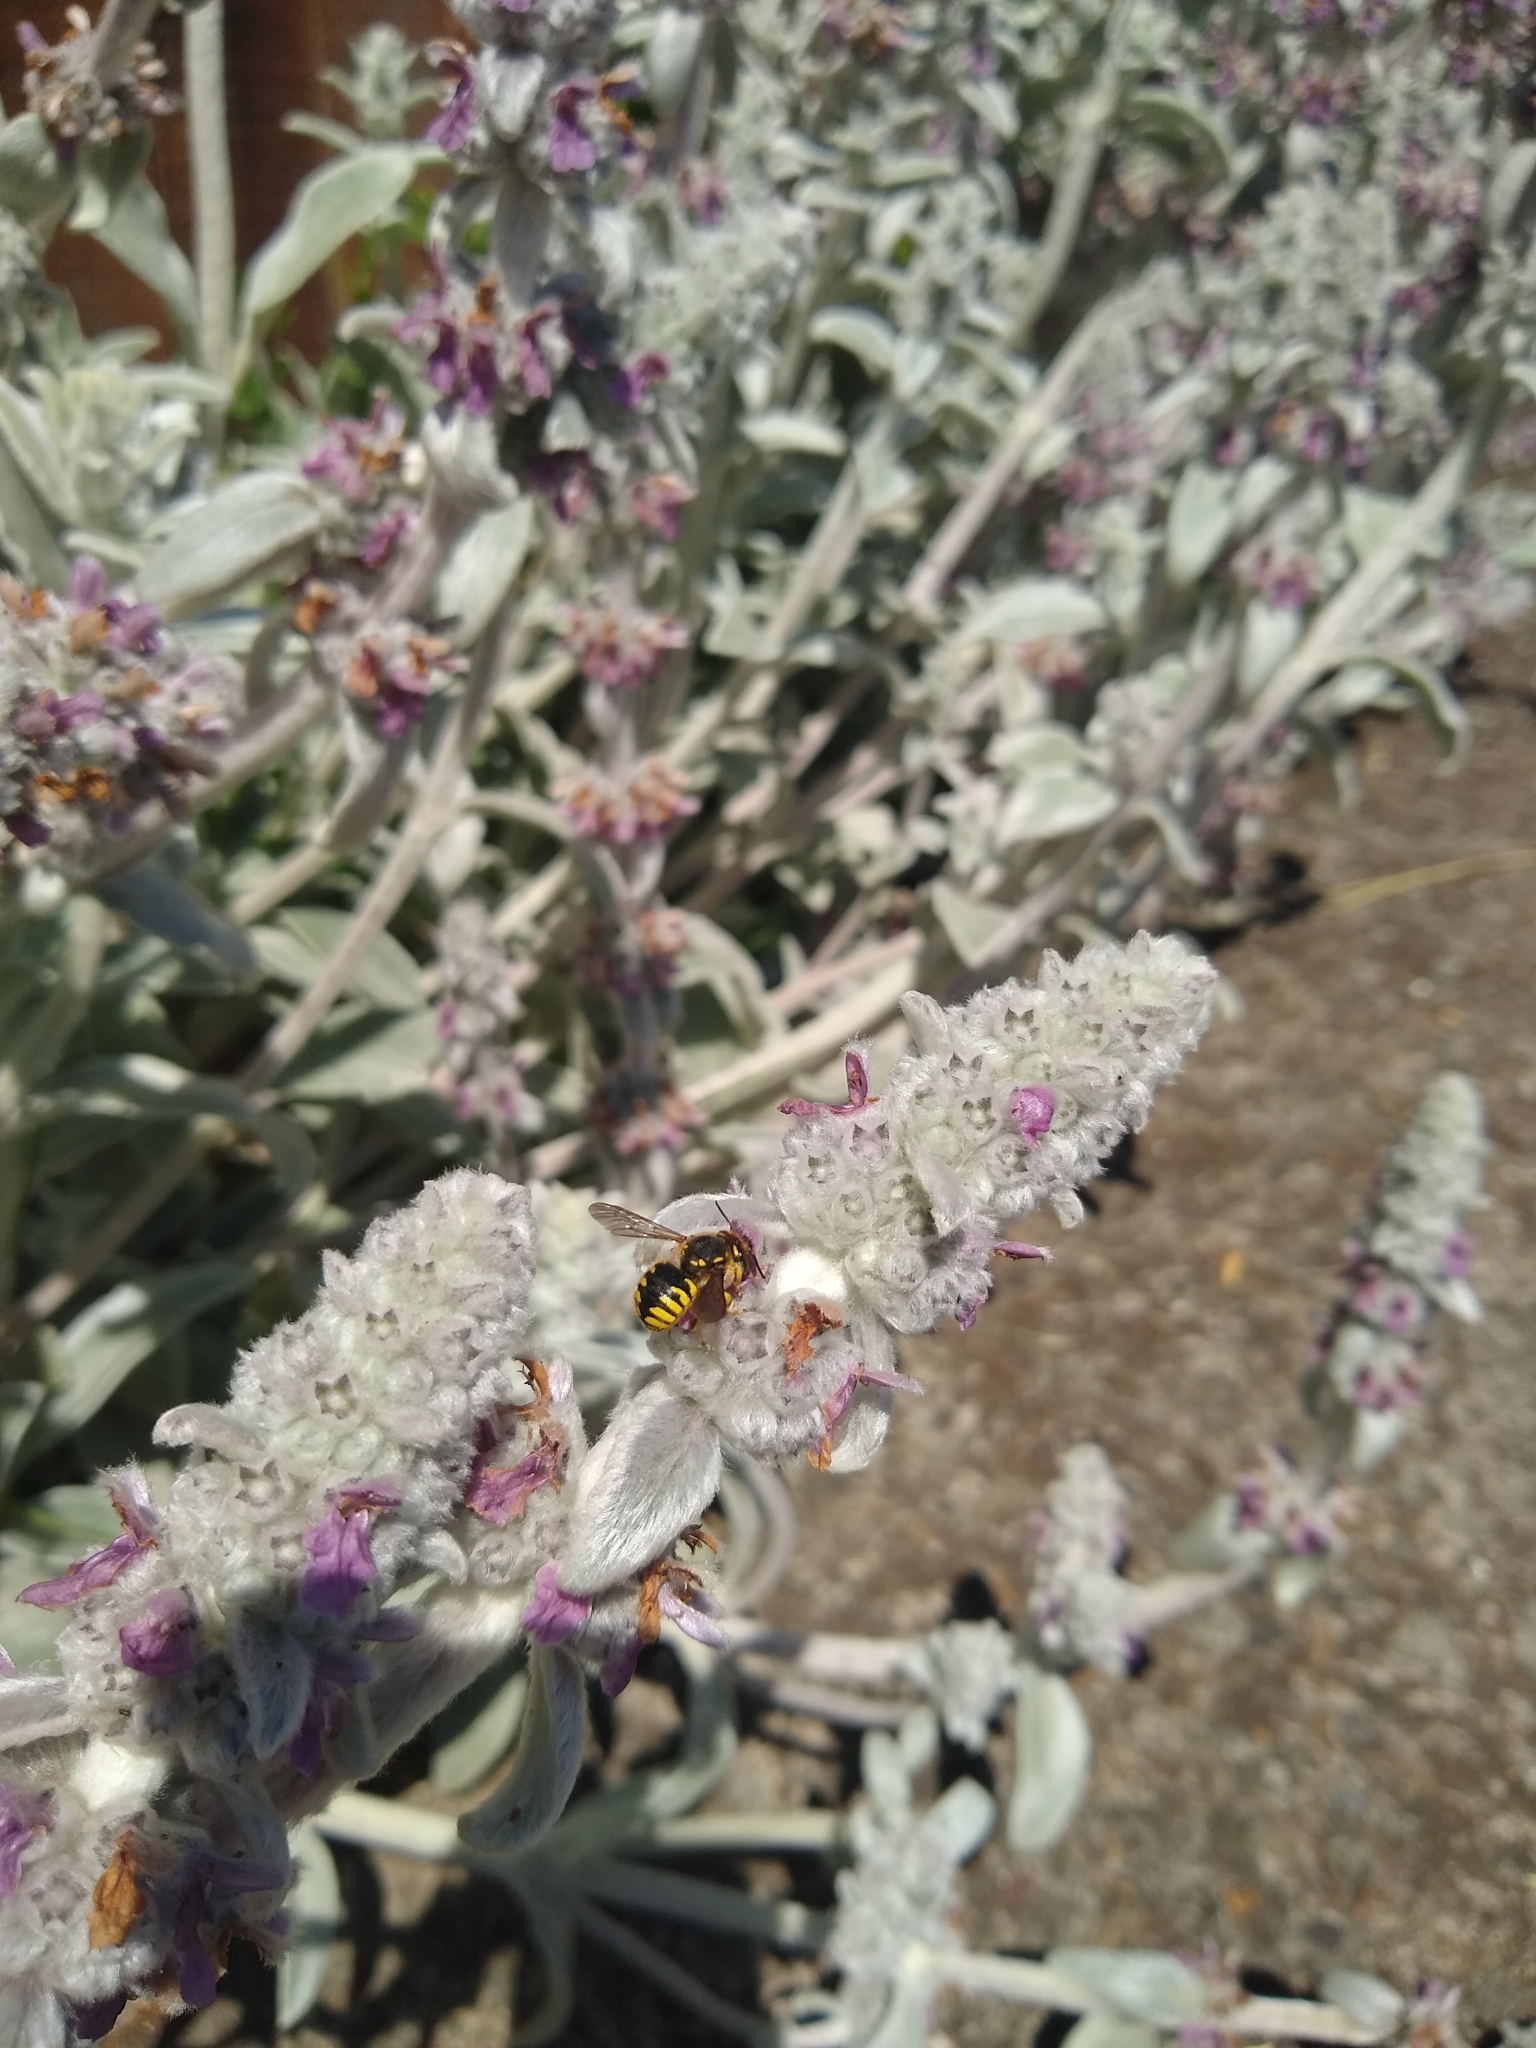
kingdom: Animalia
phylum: Arthropoda
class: Insecta
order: Hymenoptera
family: Megachilidae
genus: Anthidium
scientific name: Anthidium manicatum
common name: Wool carder bee
